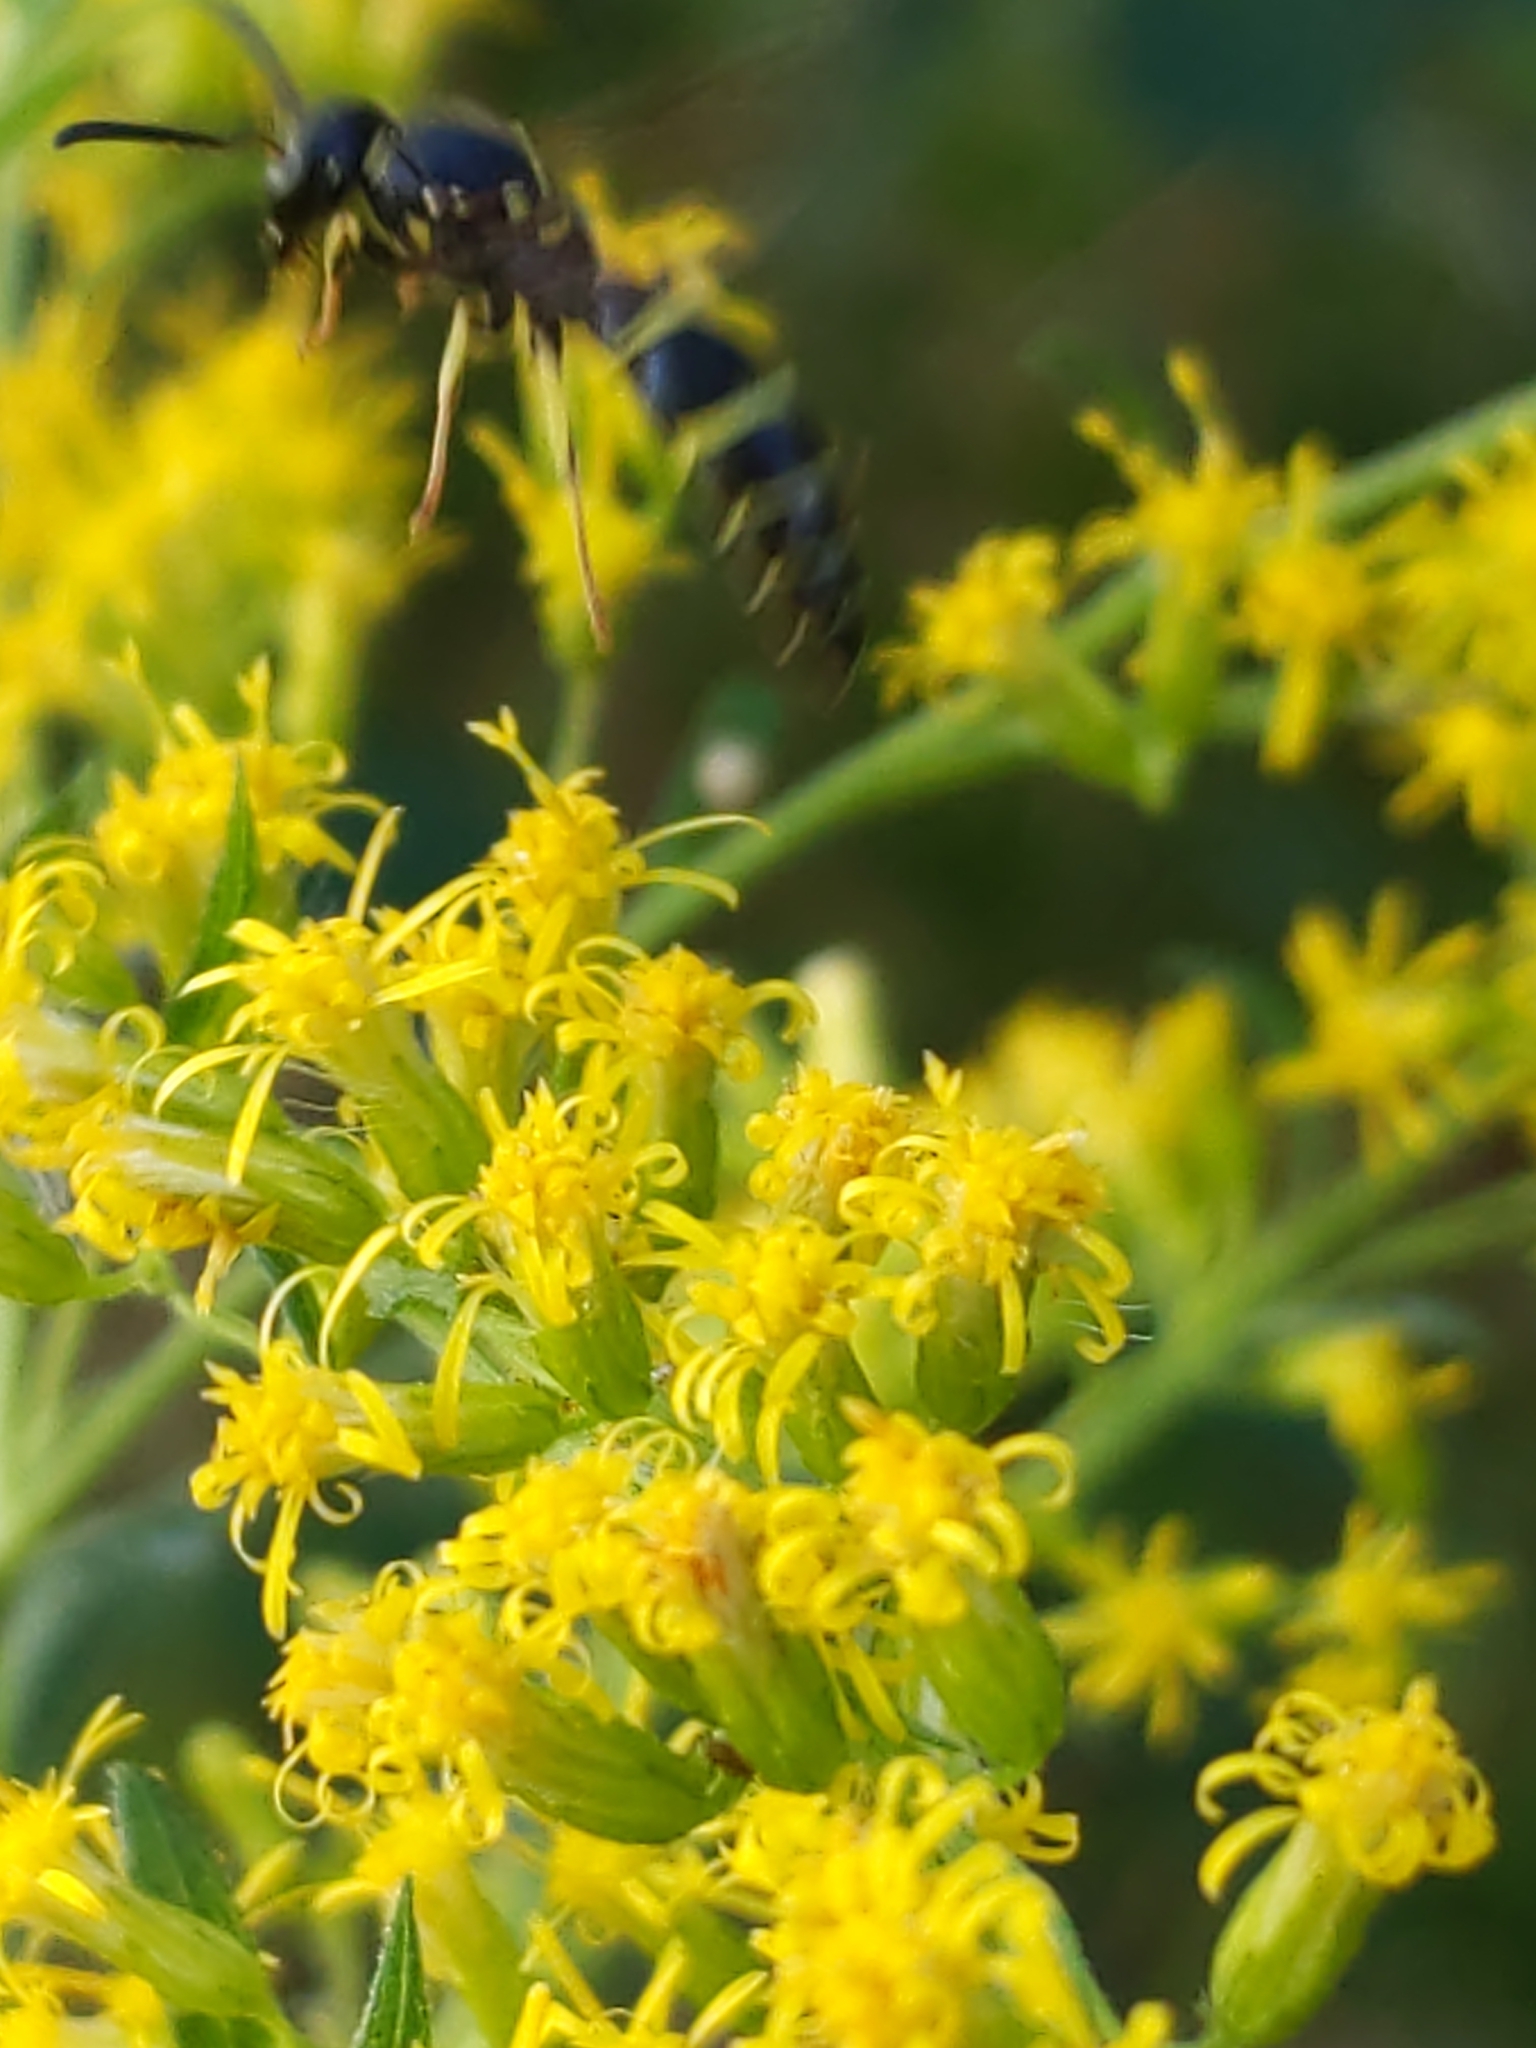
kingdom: Animalia
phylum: Arthropoda
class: Insecta
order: Hymenoptera
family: Vespidae
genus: Ancistrocerus
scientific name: Ancistrocerus adiabatus
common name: Bramble mason wasp
